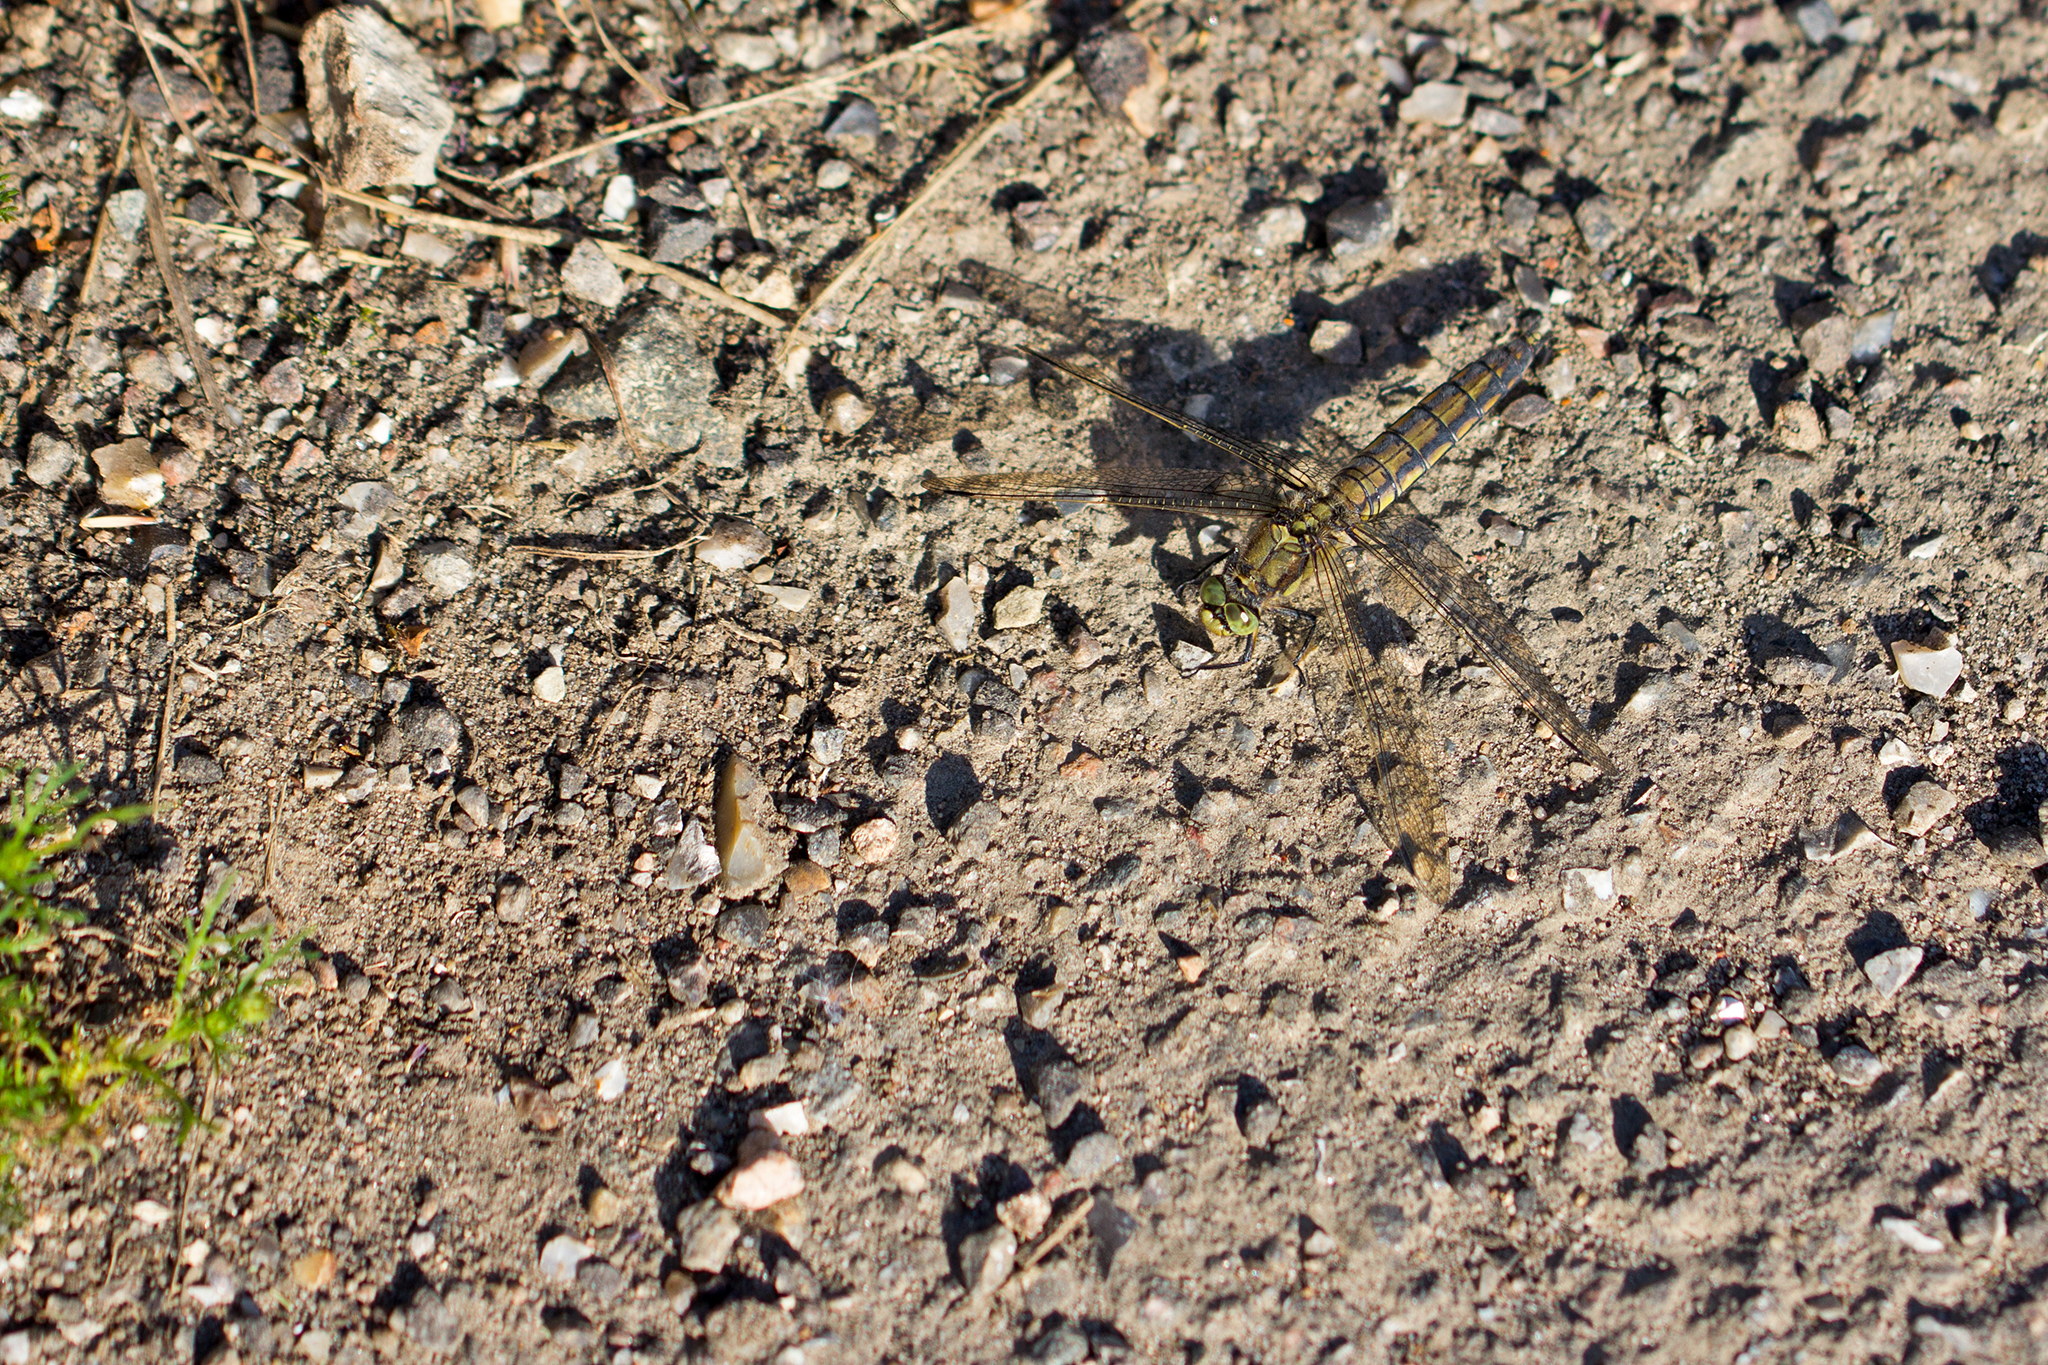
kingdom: Animalia
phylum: Arthropoda
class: Insecta
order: Odonata
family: Libellulidae
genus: Orthetrum
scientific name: Orthetrum cancellatum
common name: Black-tailed skimmer
